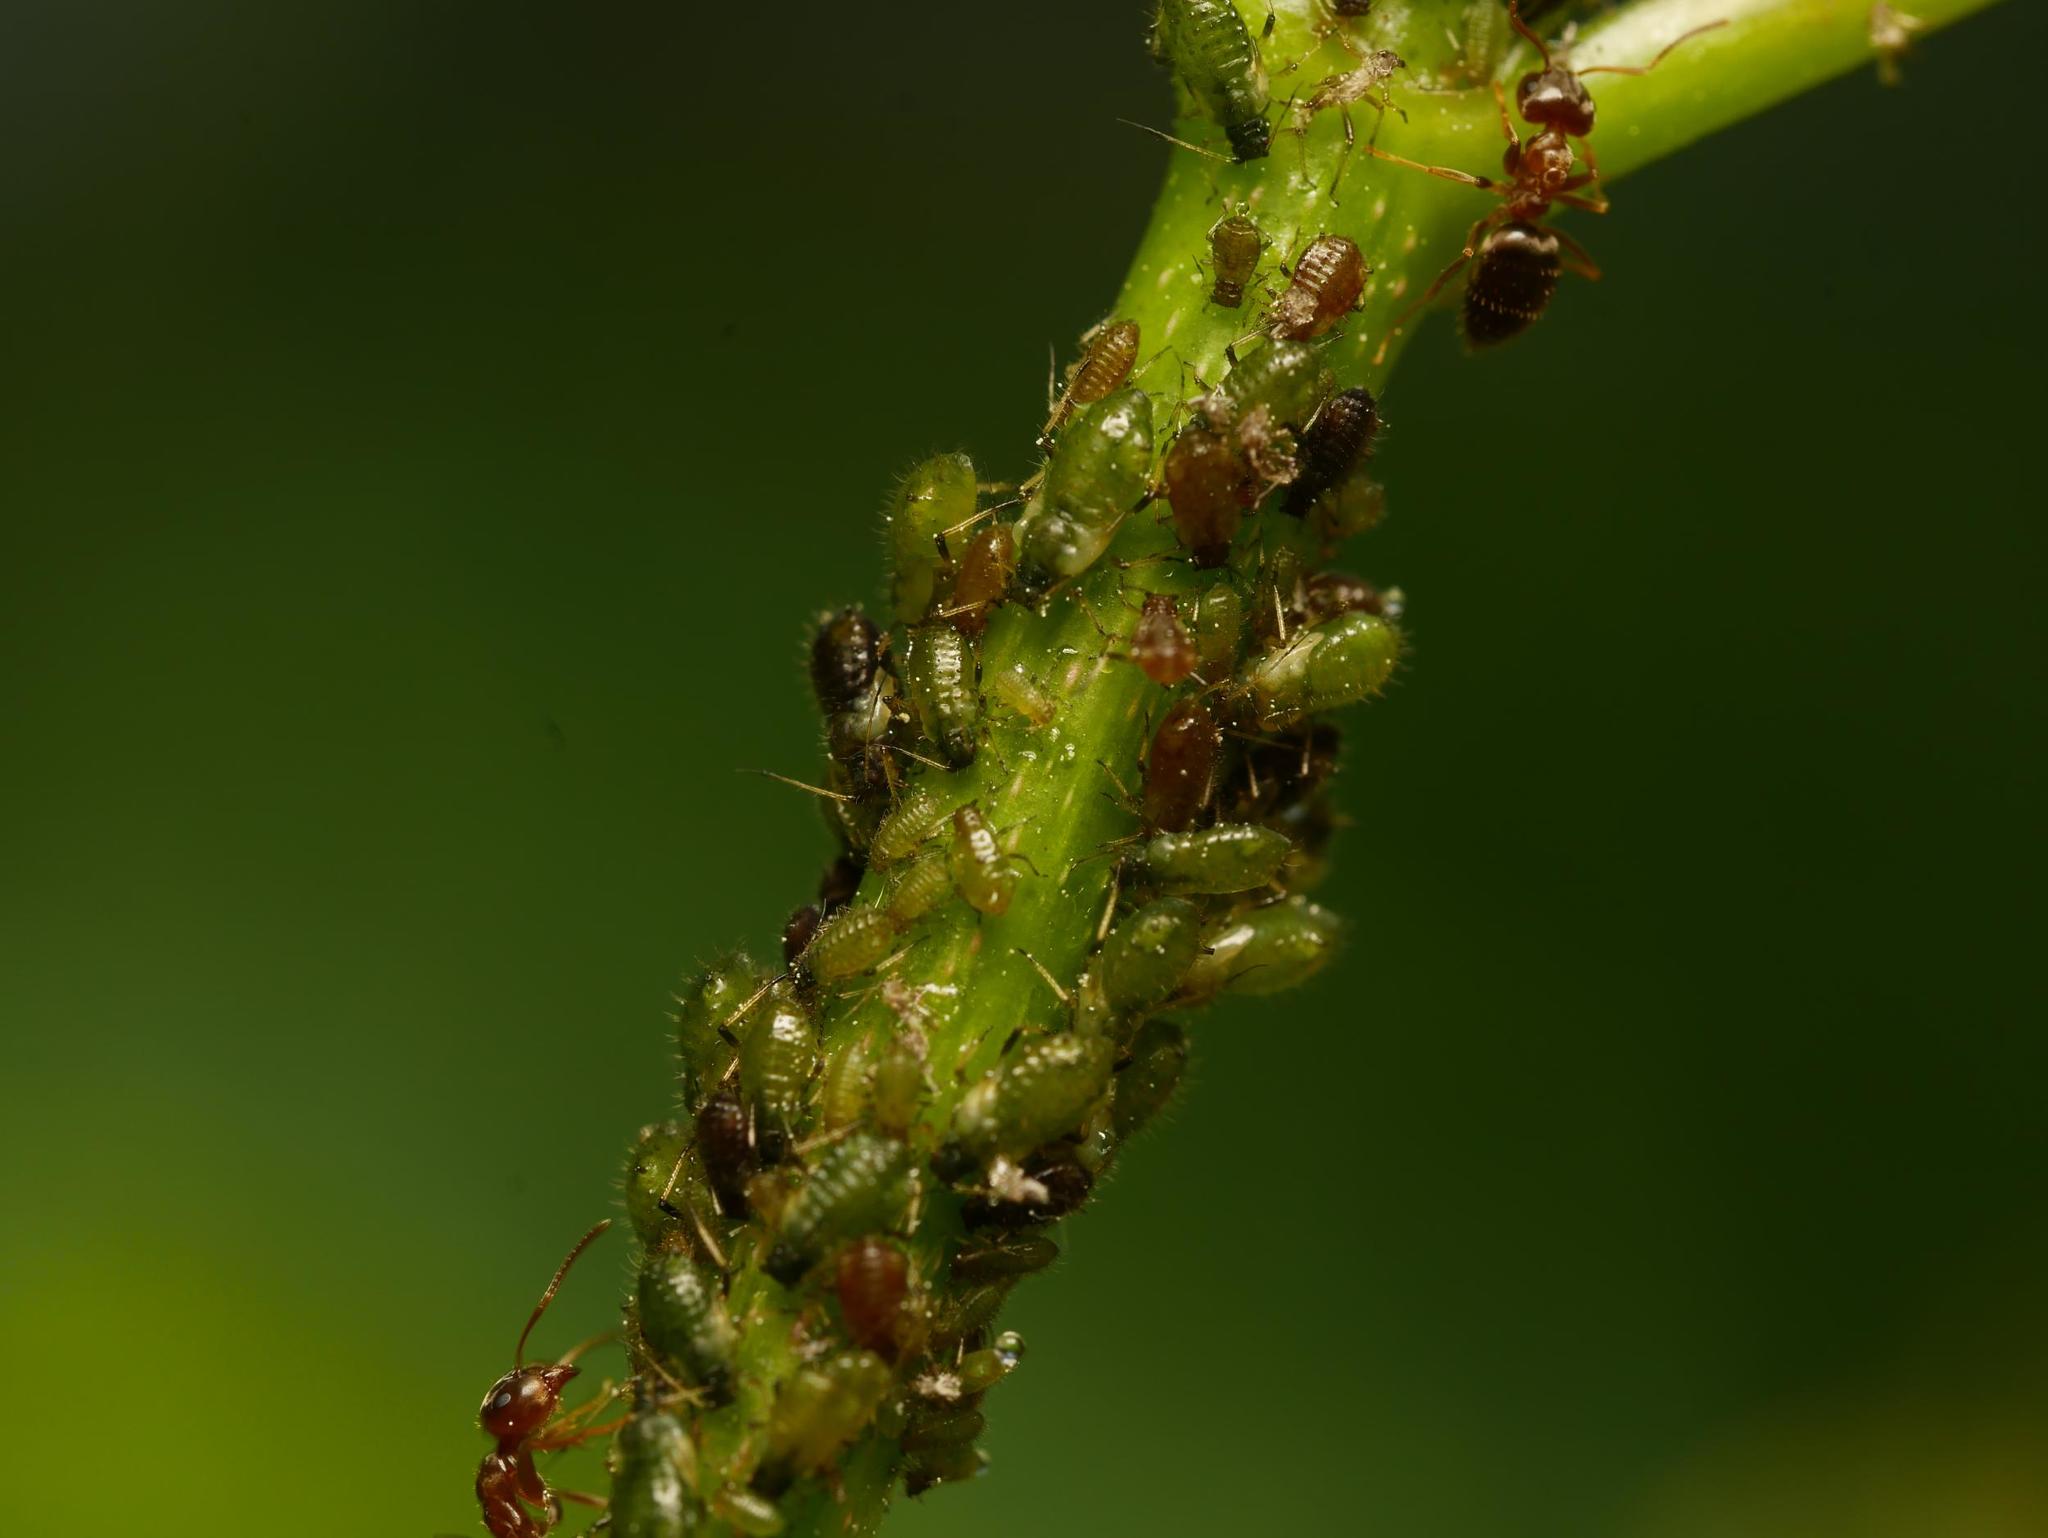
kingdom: Animalia
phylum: Arthropoda
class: Insecta
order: Hemiptera
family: Aphididae
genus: Periphyllus
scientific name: Periphyllus testudinaceus
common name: Common maple aphid
